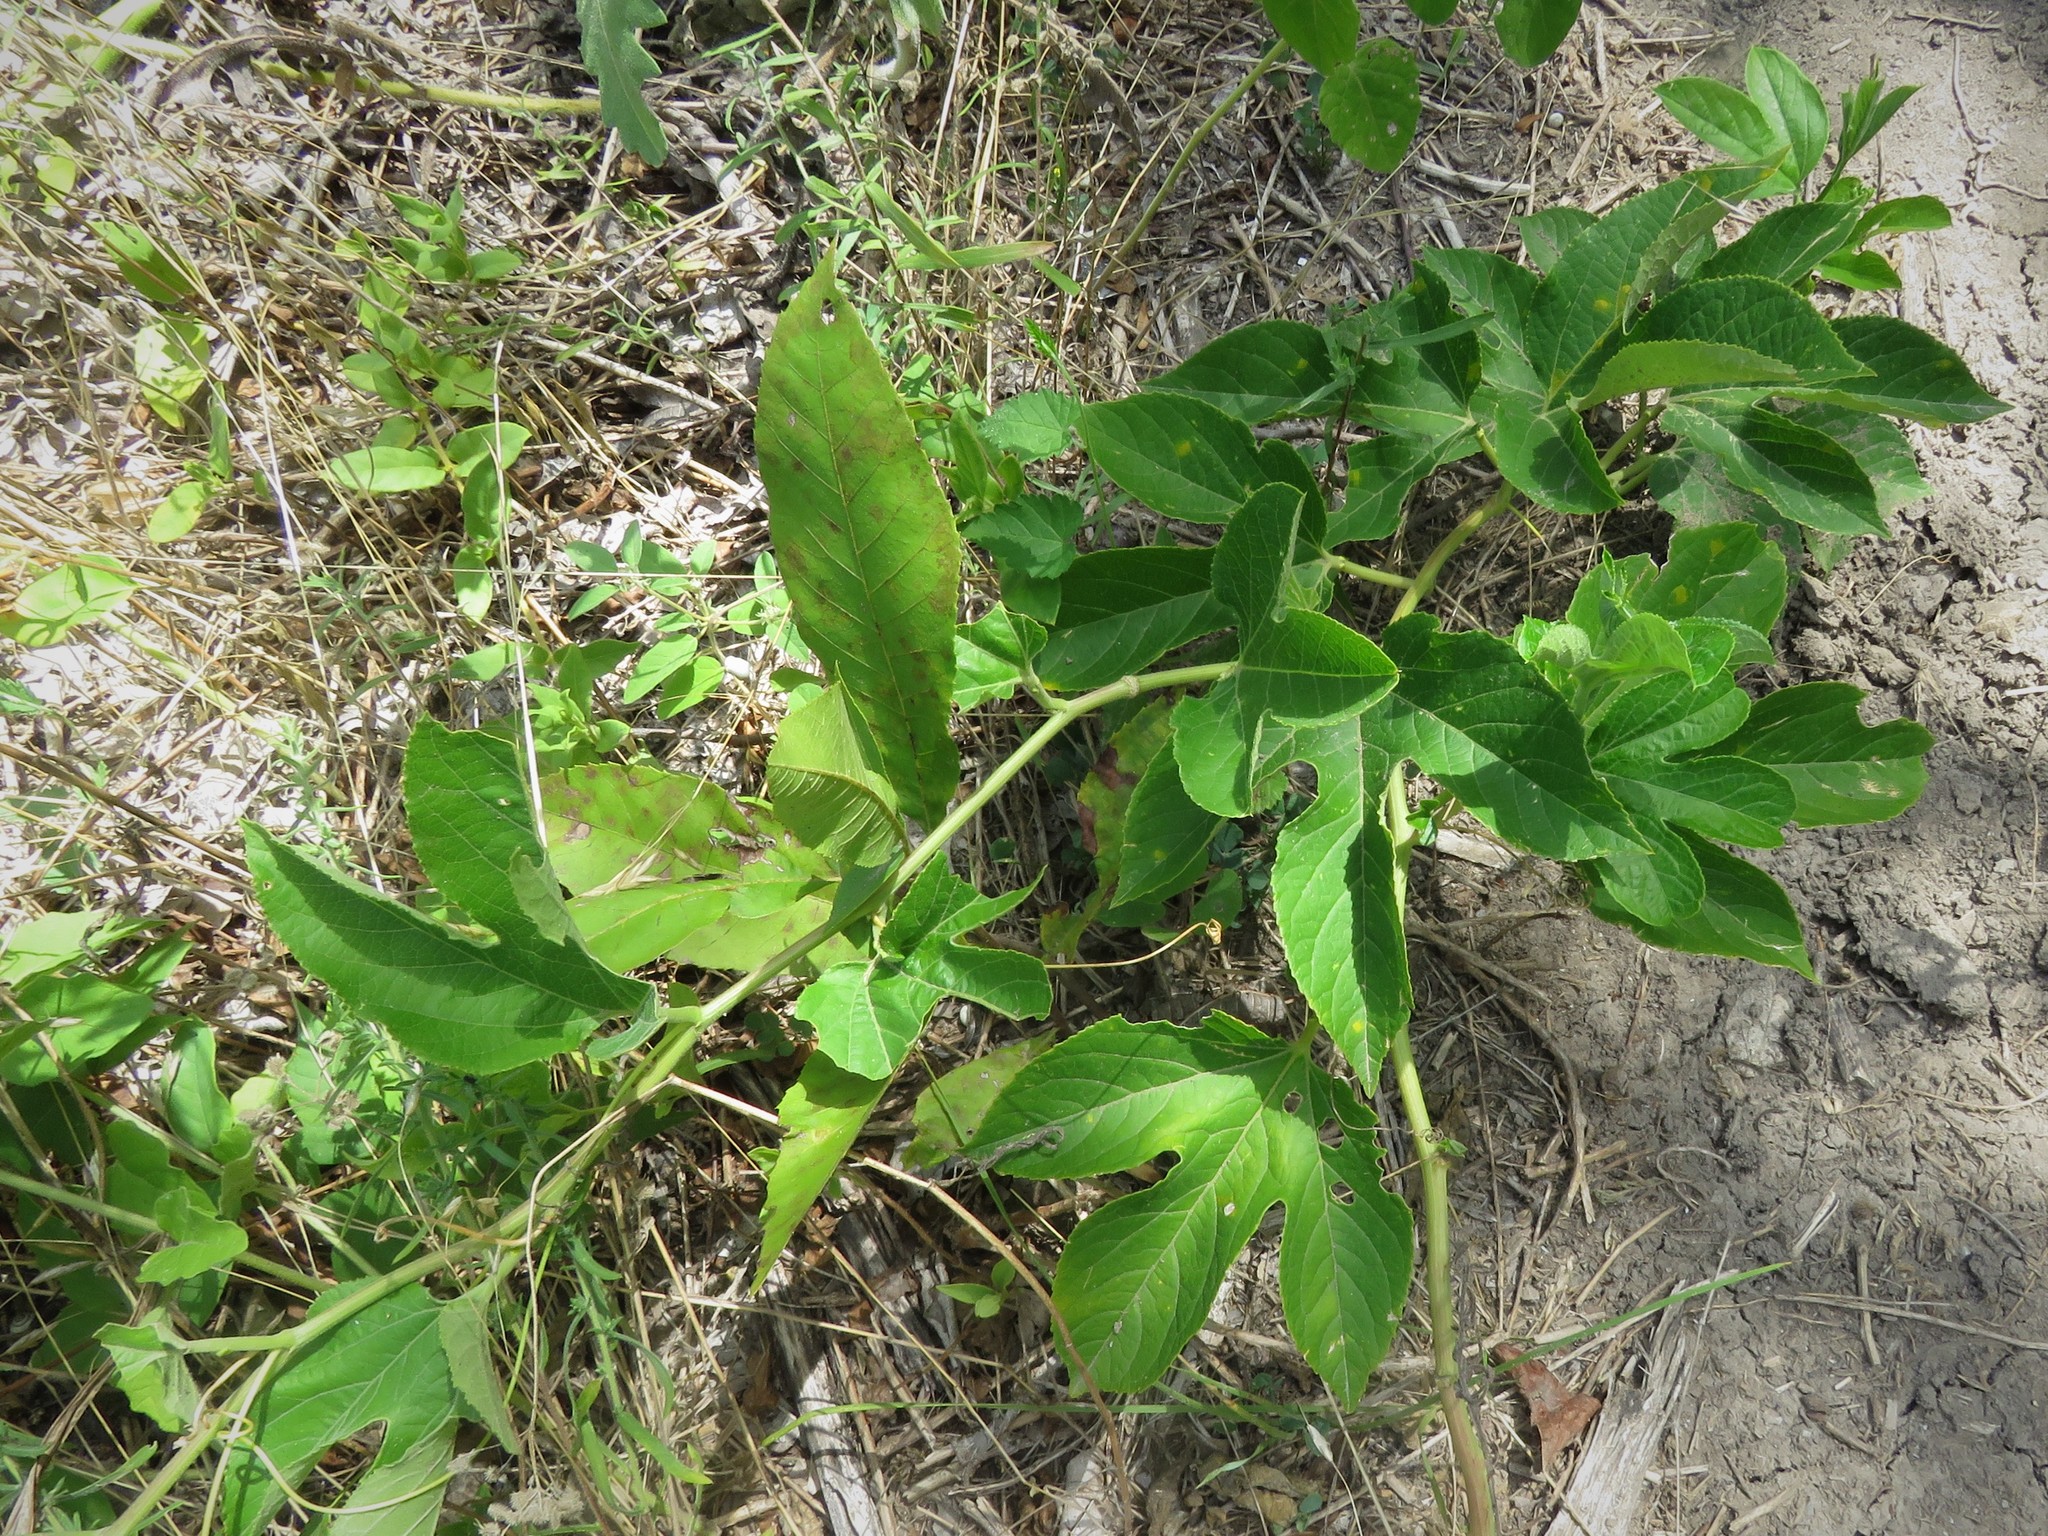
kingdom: Plantae
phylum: Tracheophyta
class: Magnoliopsida
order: Malpighiales
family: Passifloraceae
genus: Passiflora
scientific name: Passiflora incarnata
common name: Apricot-vine
